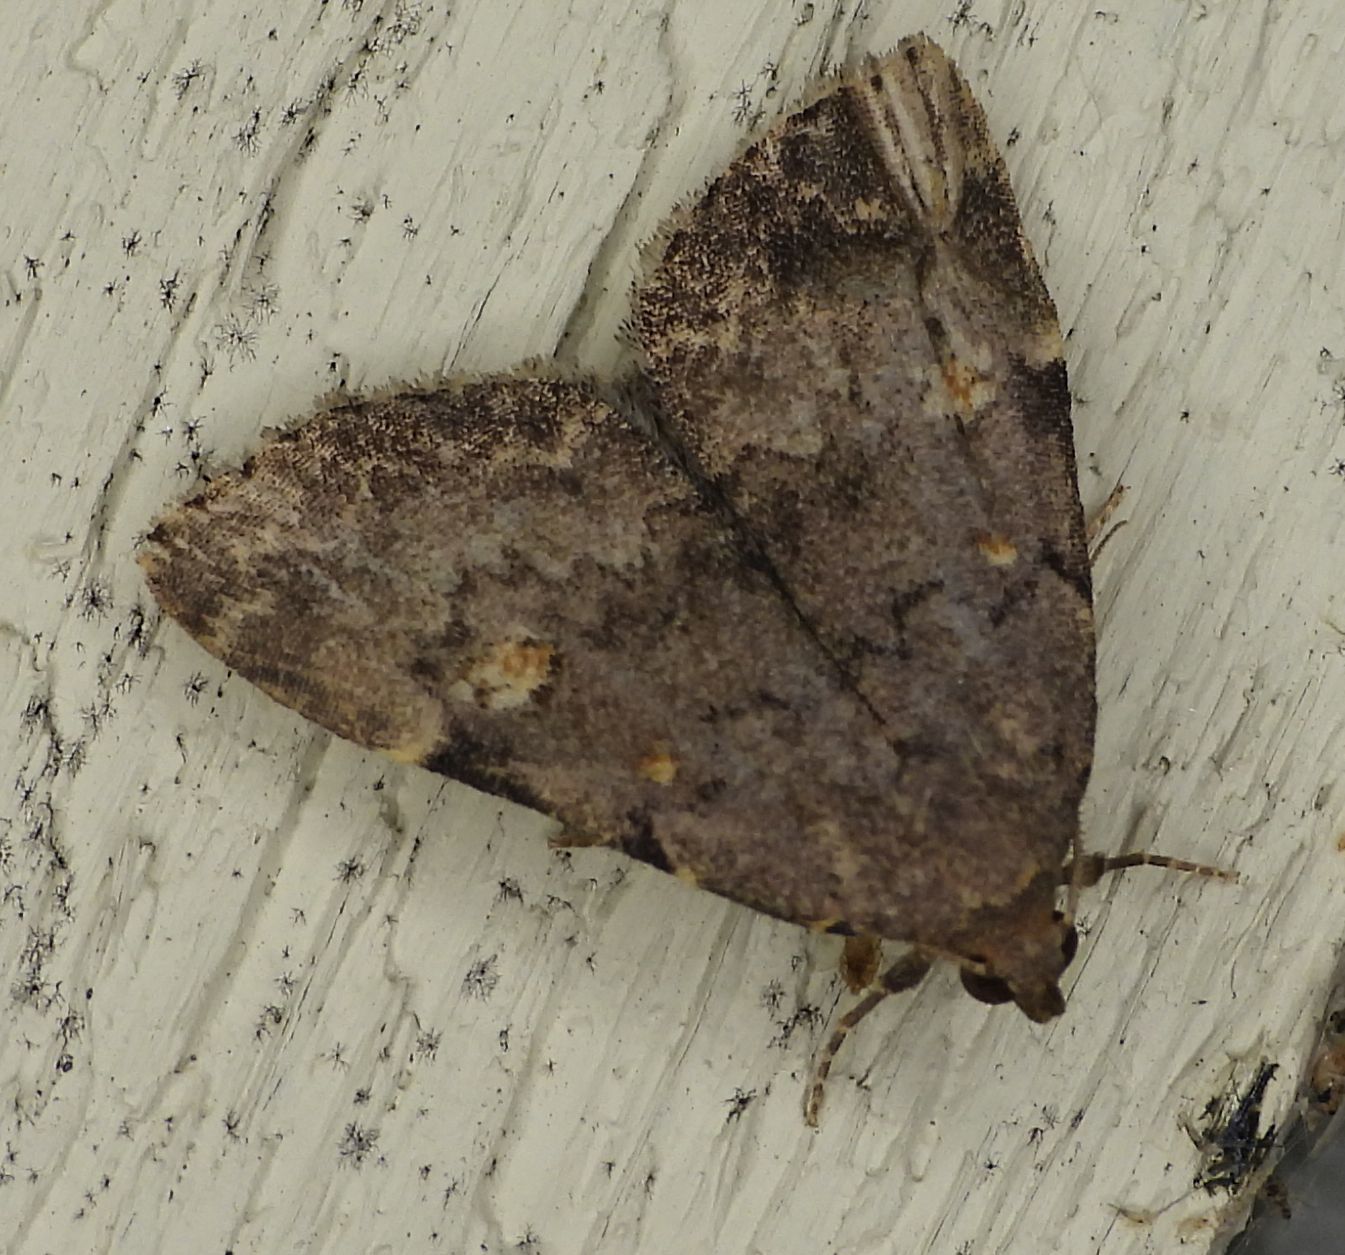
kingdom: Animalia
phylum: Arthropoda
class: Insecta
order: Lepidoptera
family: Erebidae
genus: Idia
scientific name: Idia aemula
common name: Common idia moth
